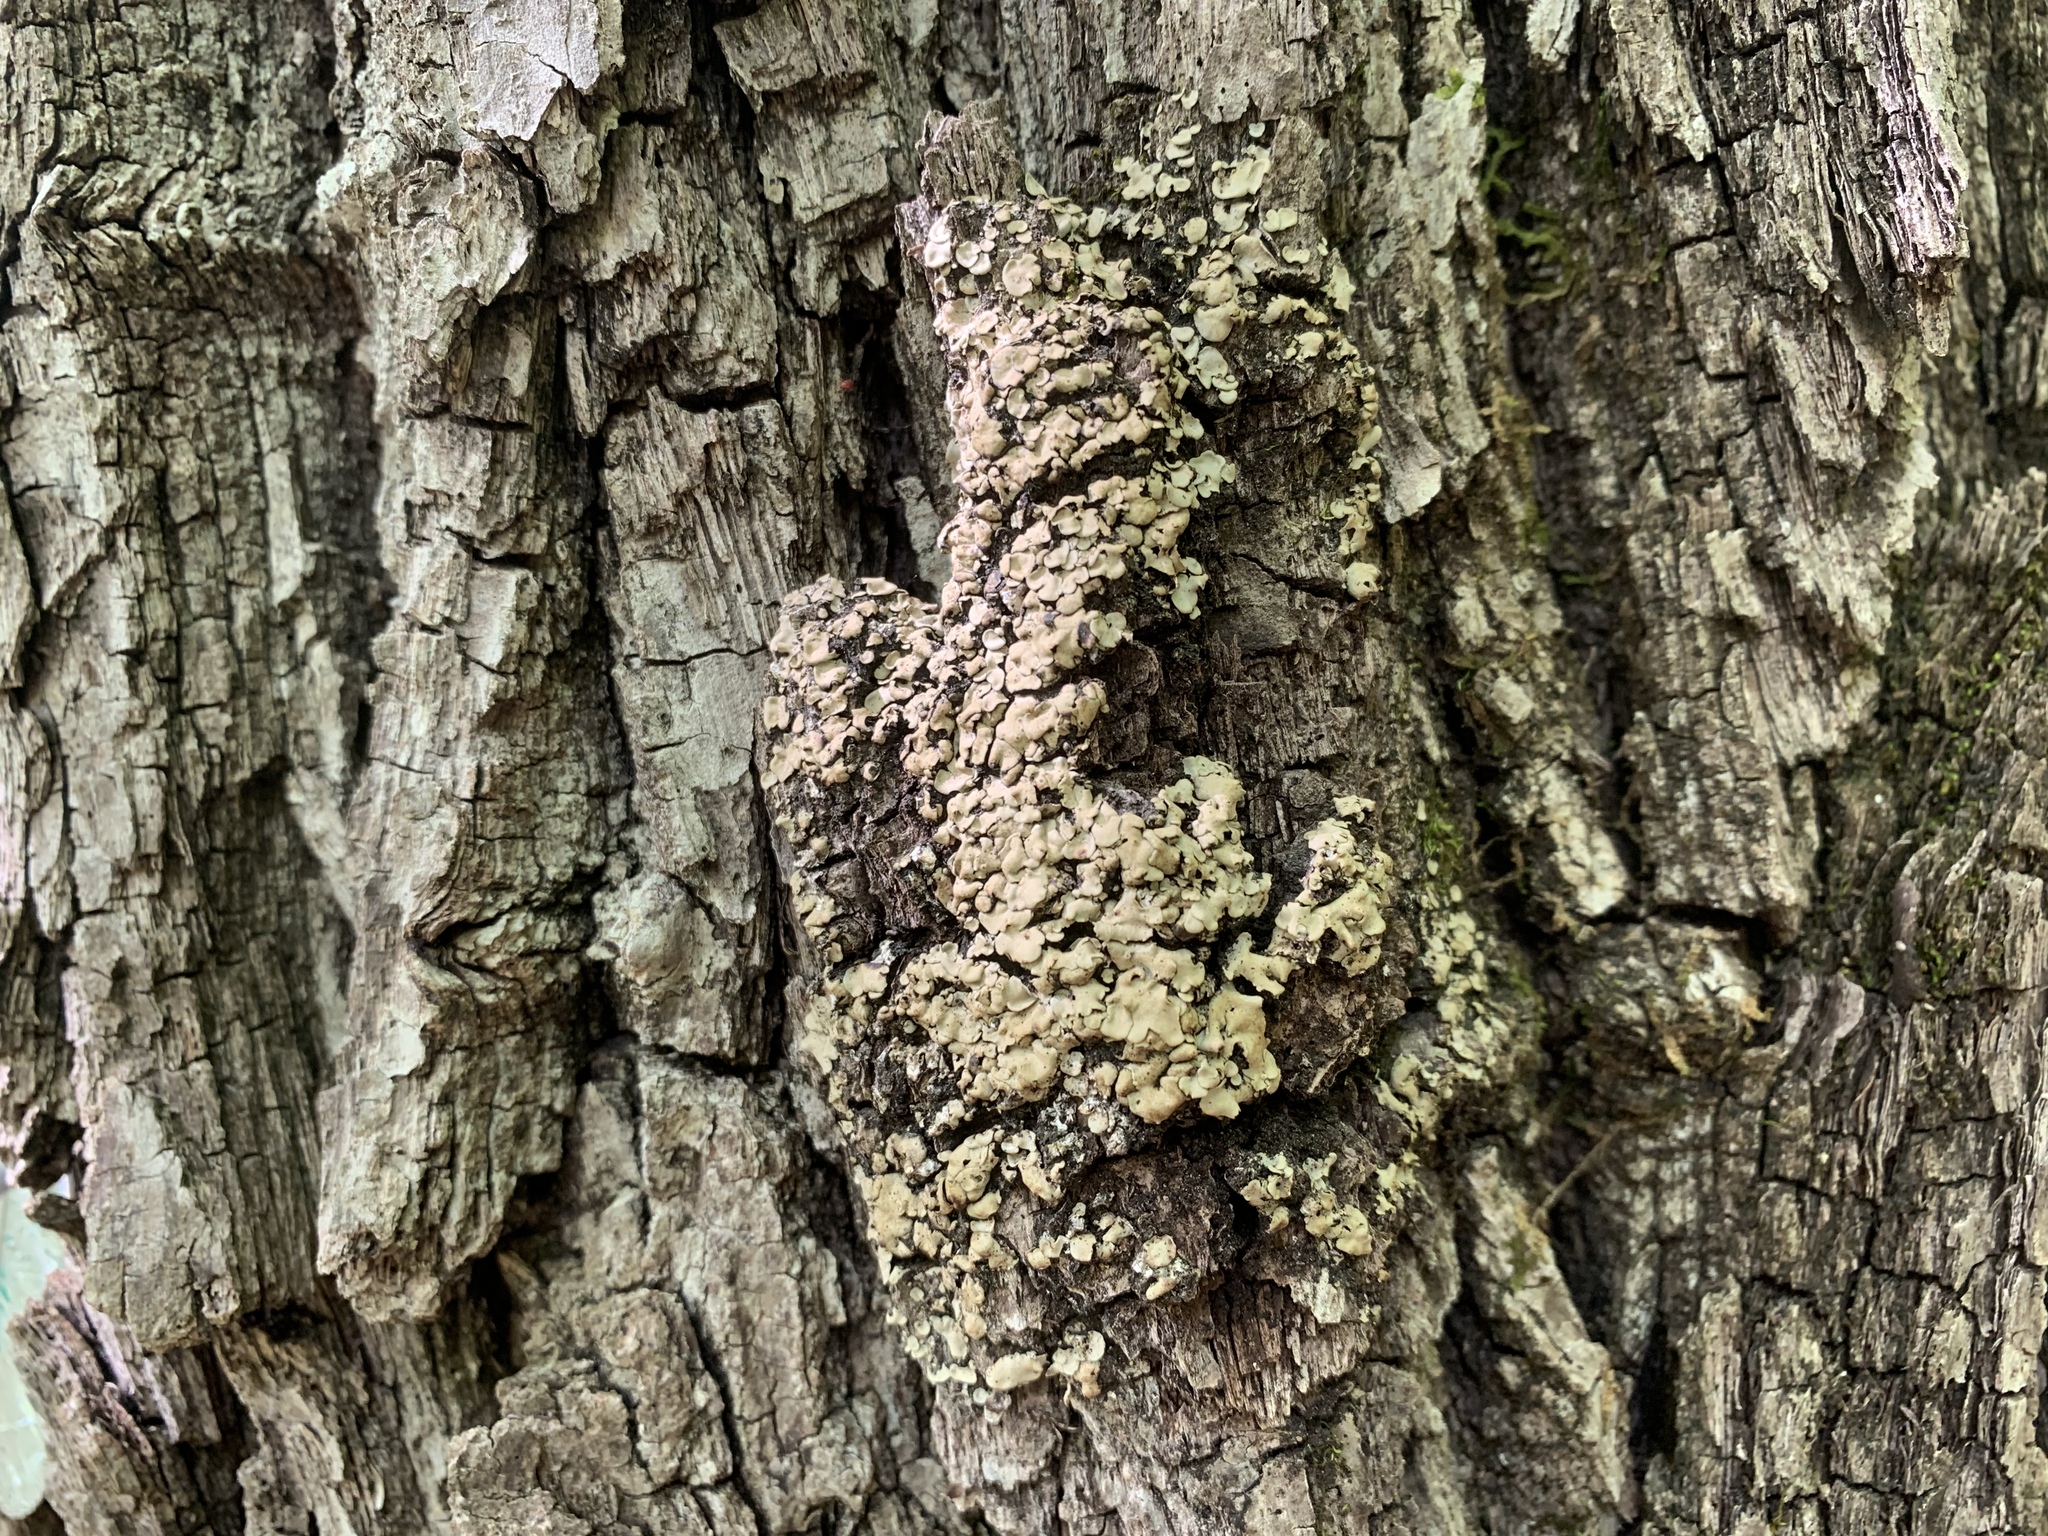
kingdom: Fungi
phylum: Ascomycota
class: Eurotiomycetes
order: Verrucariales
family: Verrucariaceae
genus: Placidium
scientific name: Placidium arboreum
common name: Tree stipplescale
